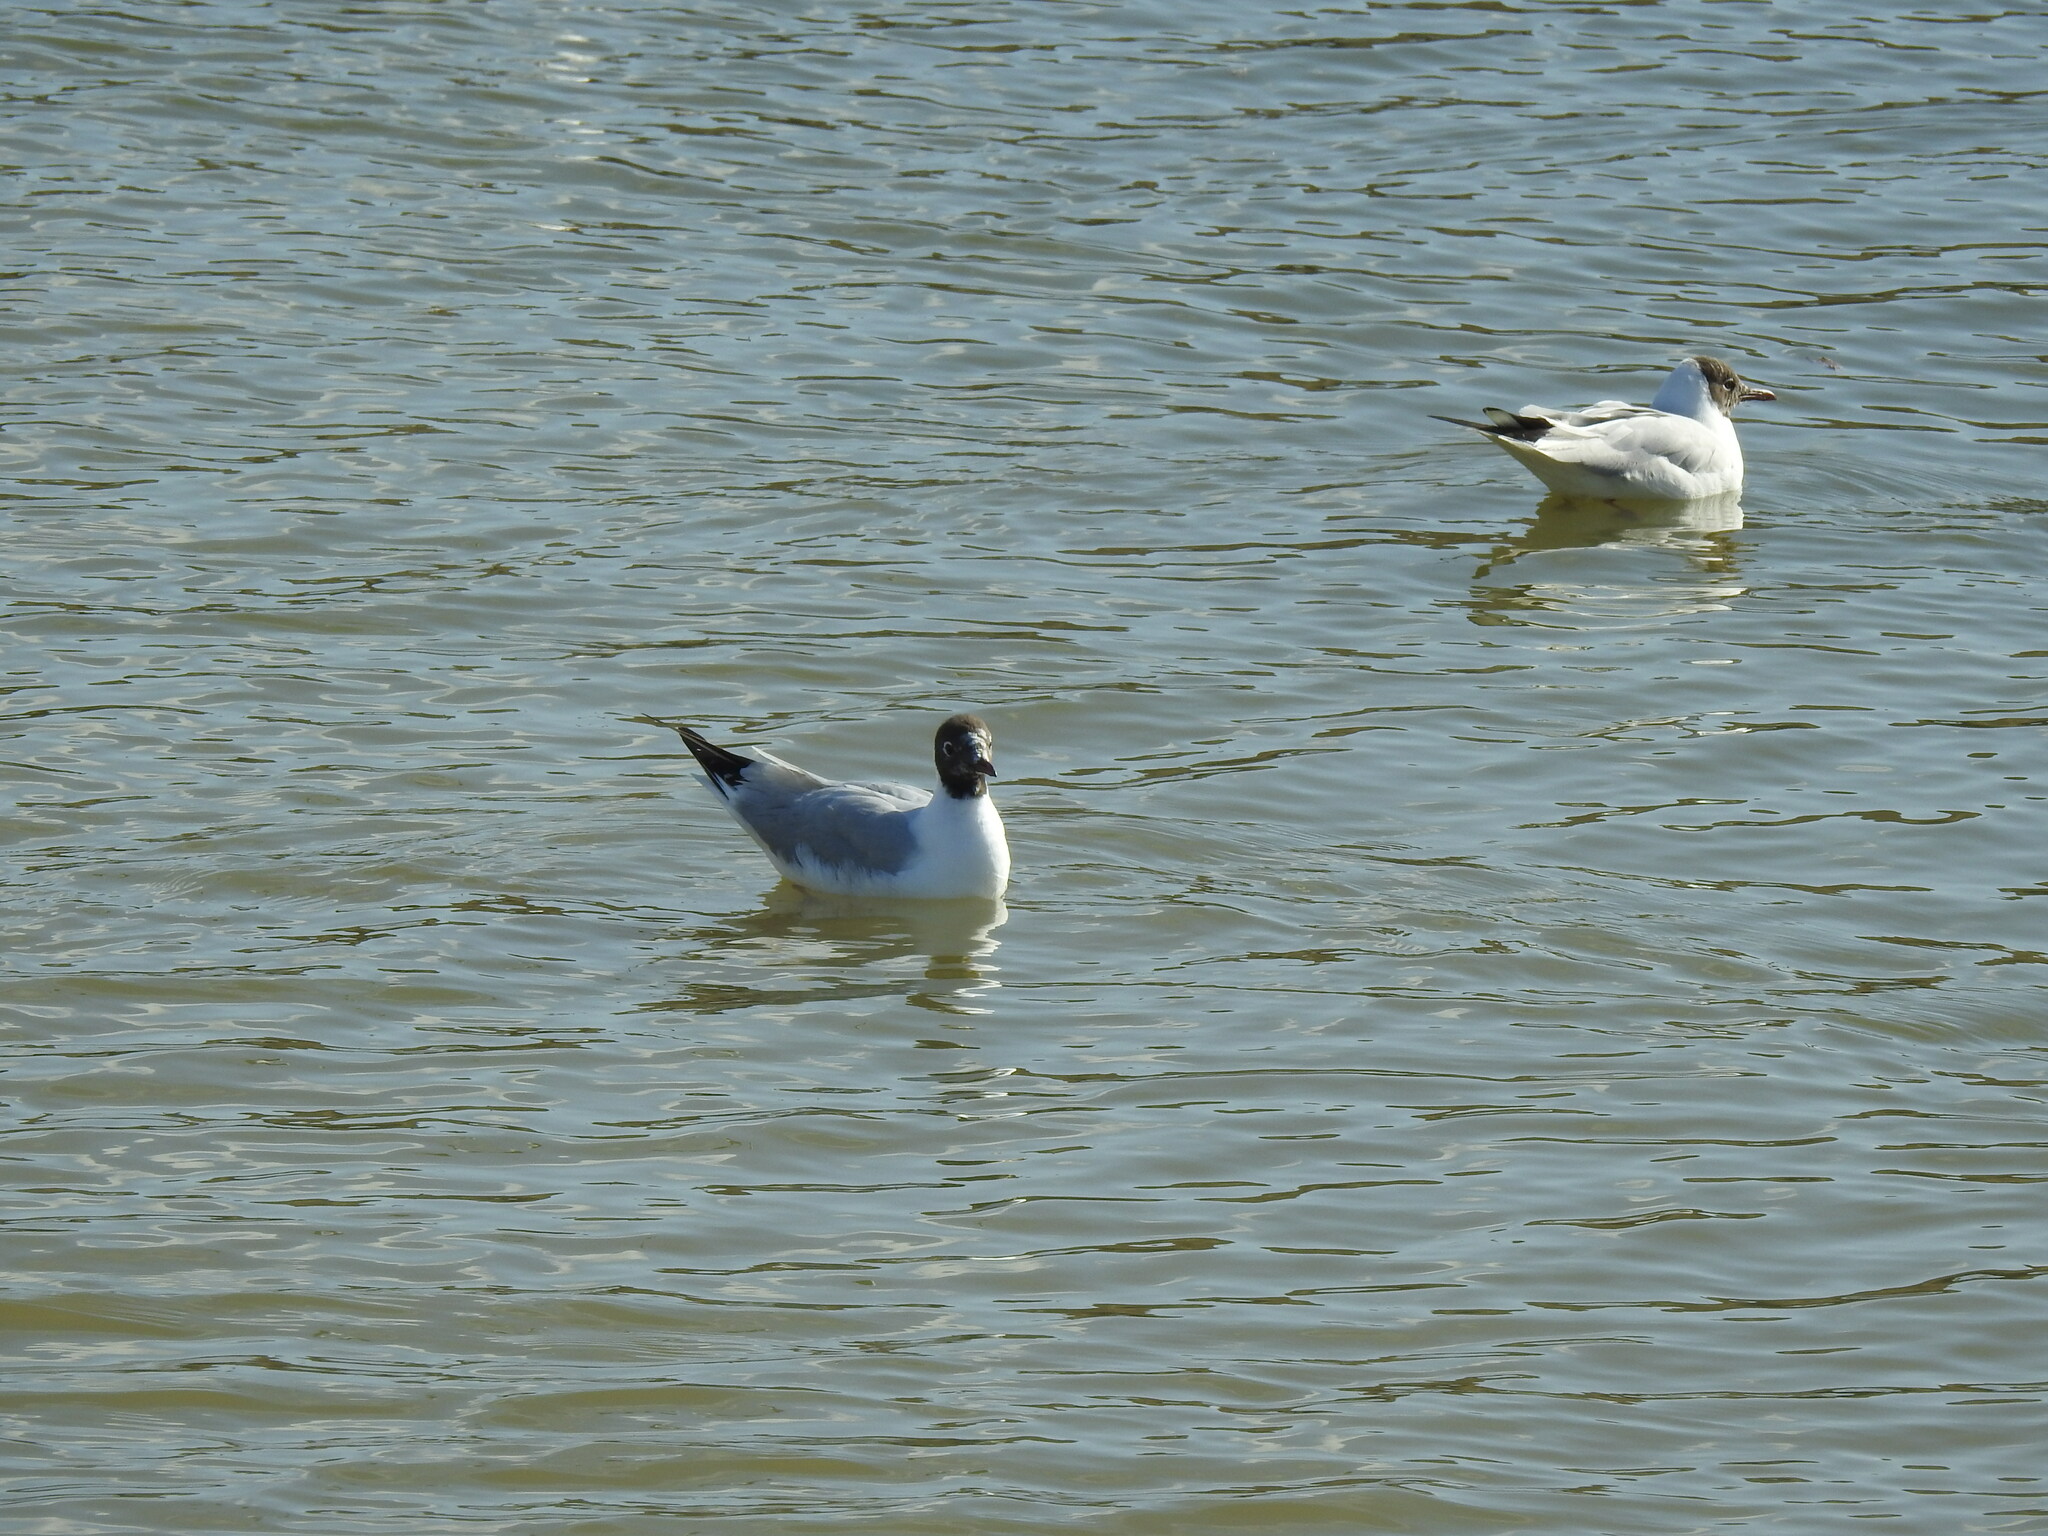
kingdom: Animalia
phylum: Chordata
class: Aves
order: Charadriiformes
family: Laridae
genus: Chroicocephalus
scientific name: Chroicocephalus ridibundus
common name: Black-headed gull
